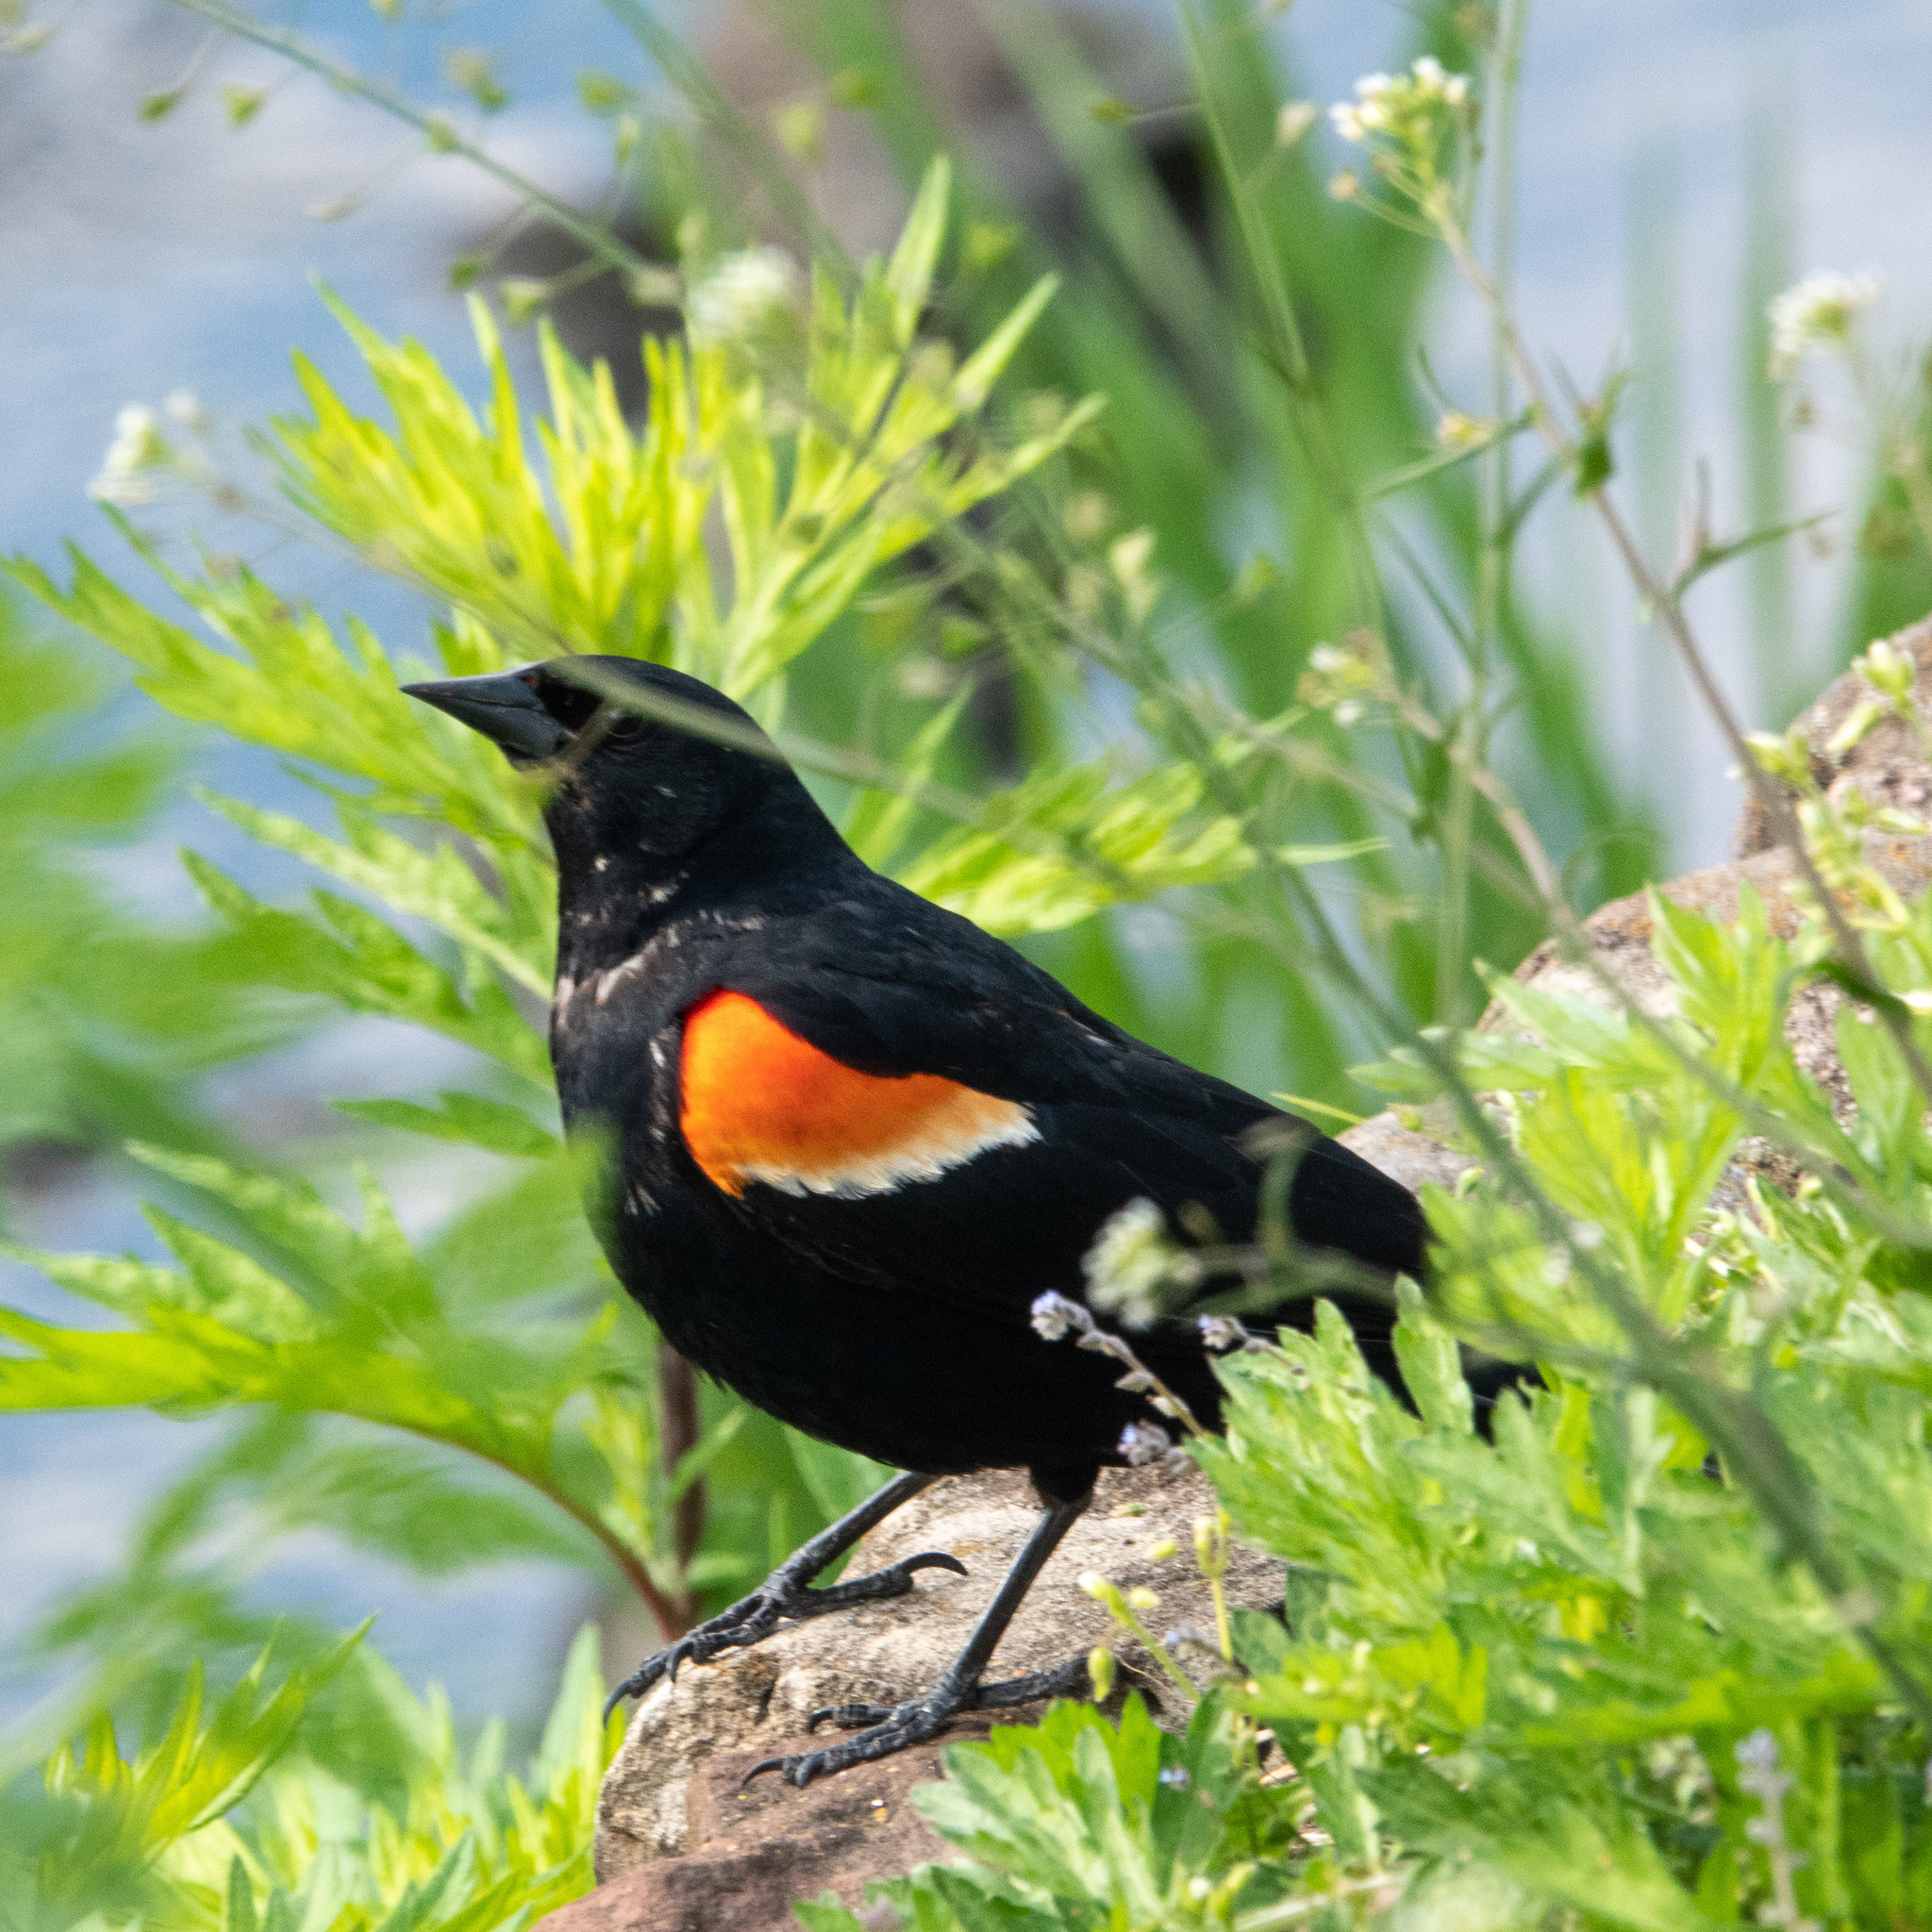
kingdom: Animalia
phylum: Chordata
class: Aves
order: Passeriformes
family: Icteridae
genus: Agelaius
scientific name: Agelaius phoeniceus
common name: Red-winged blackbird
